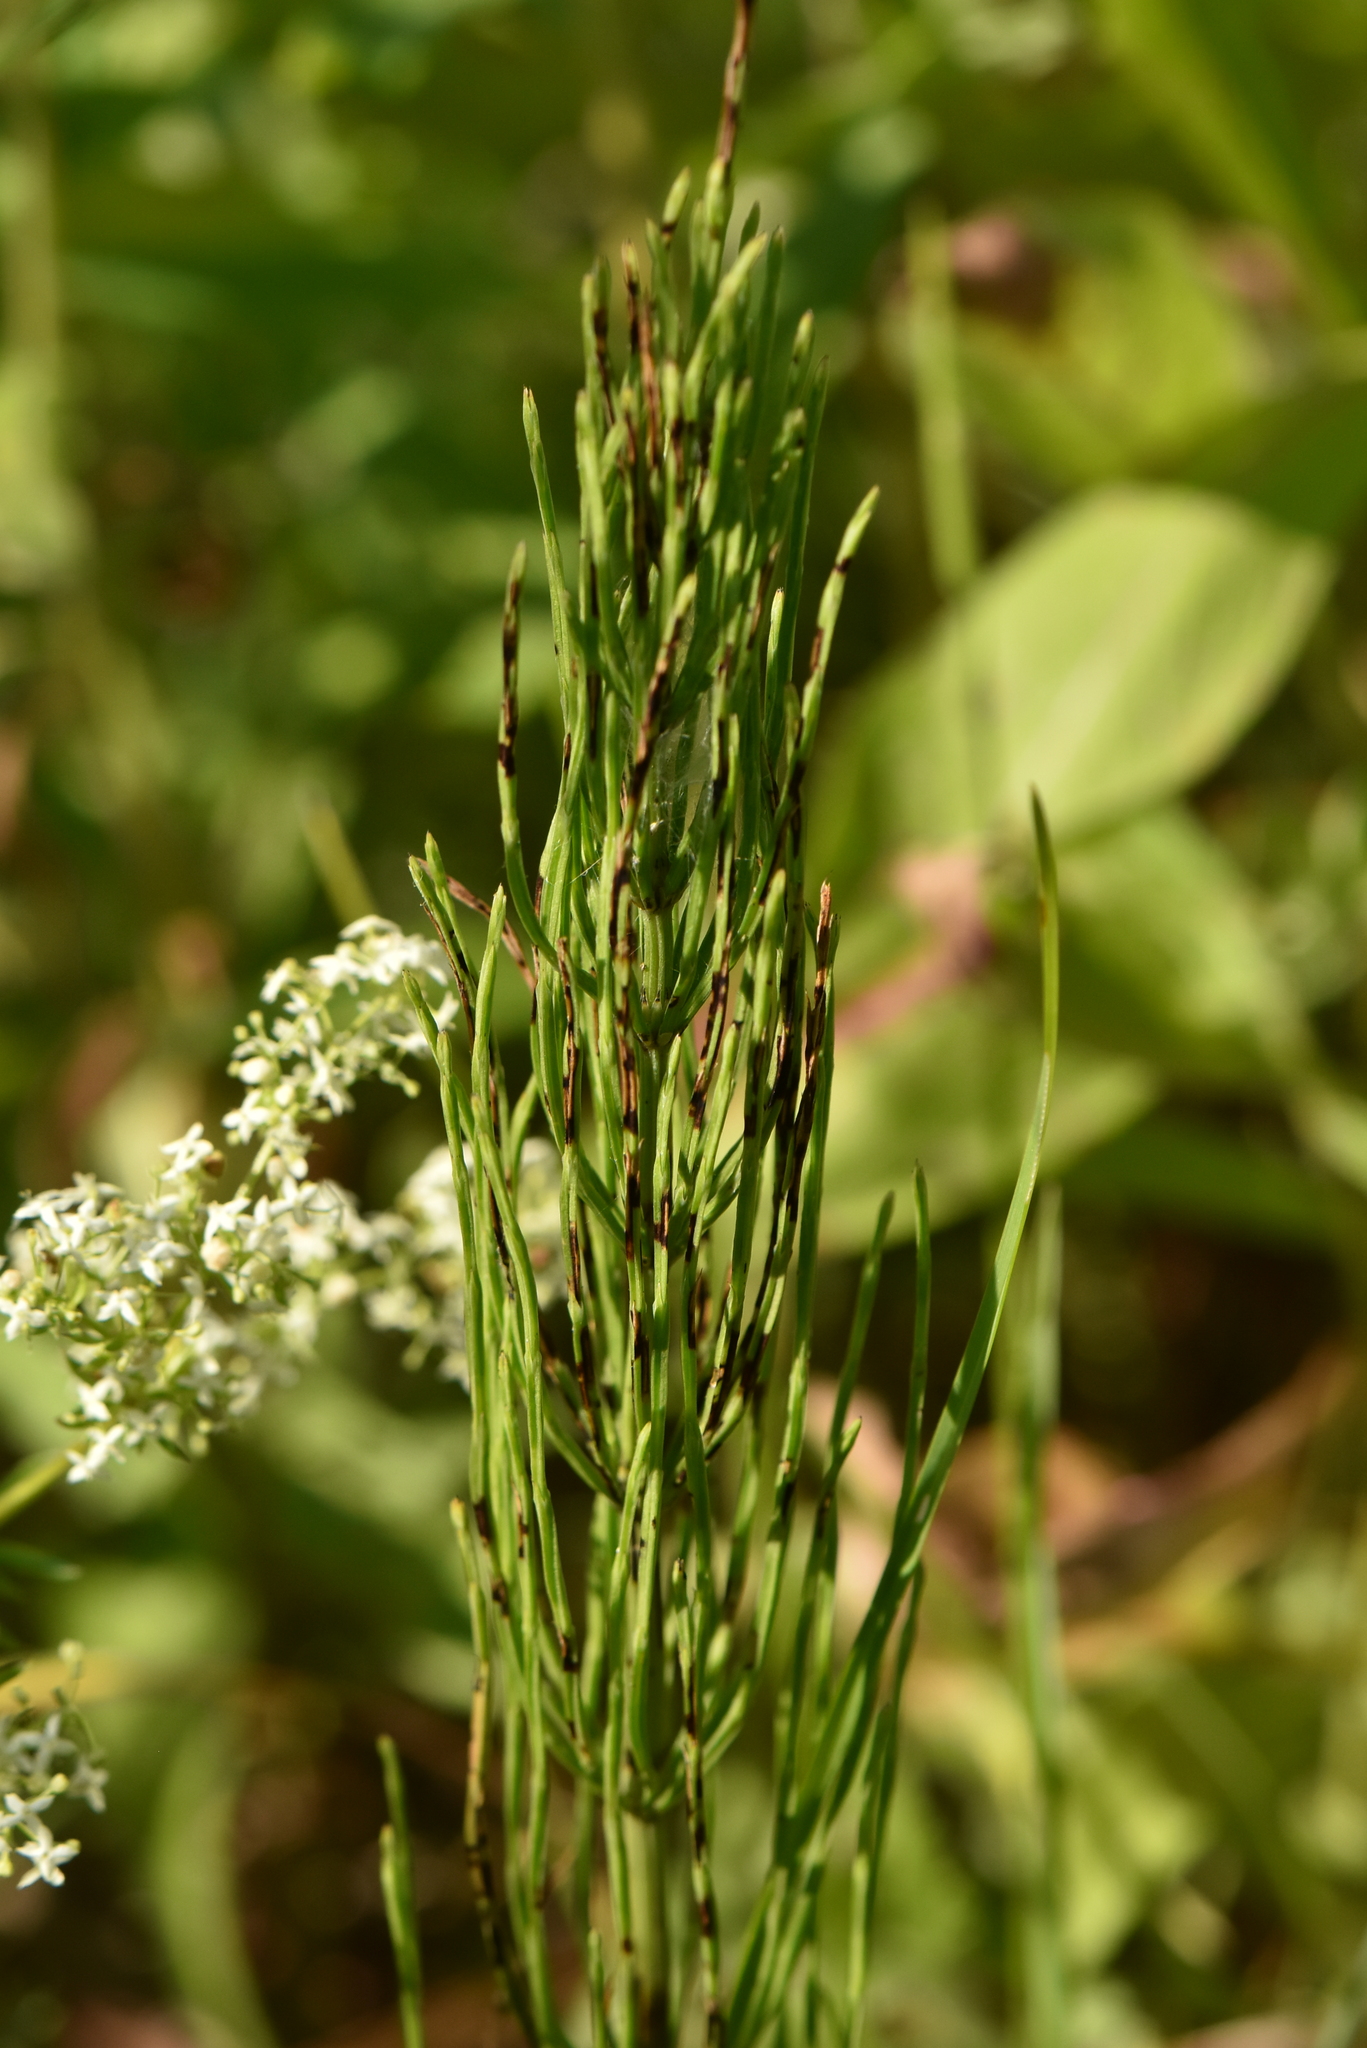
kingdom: Plantae
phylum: Tracheophyta
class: Polypodiopsida
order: Equisetales
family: Equisetaceae
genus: Equisetum
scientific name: Equisetum arvense
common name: Field horsetail
